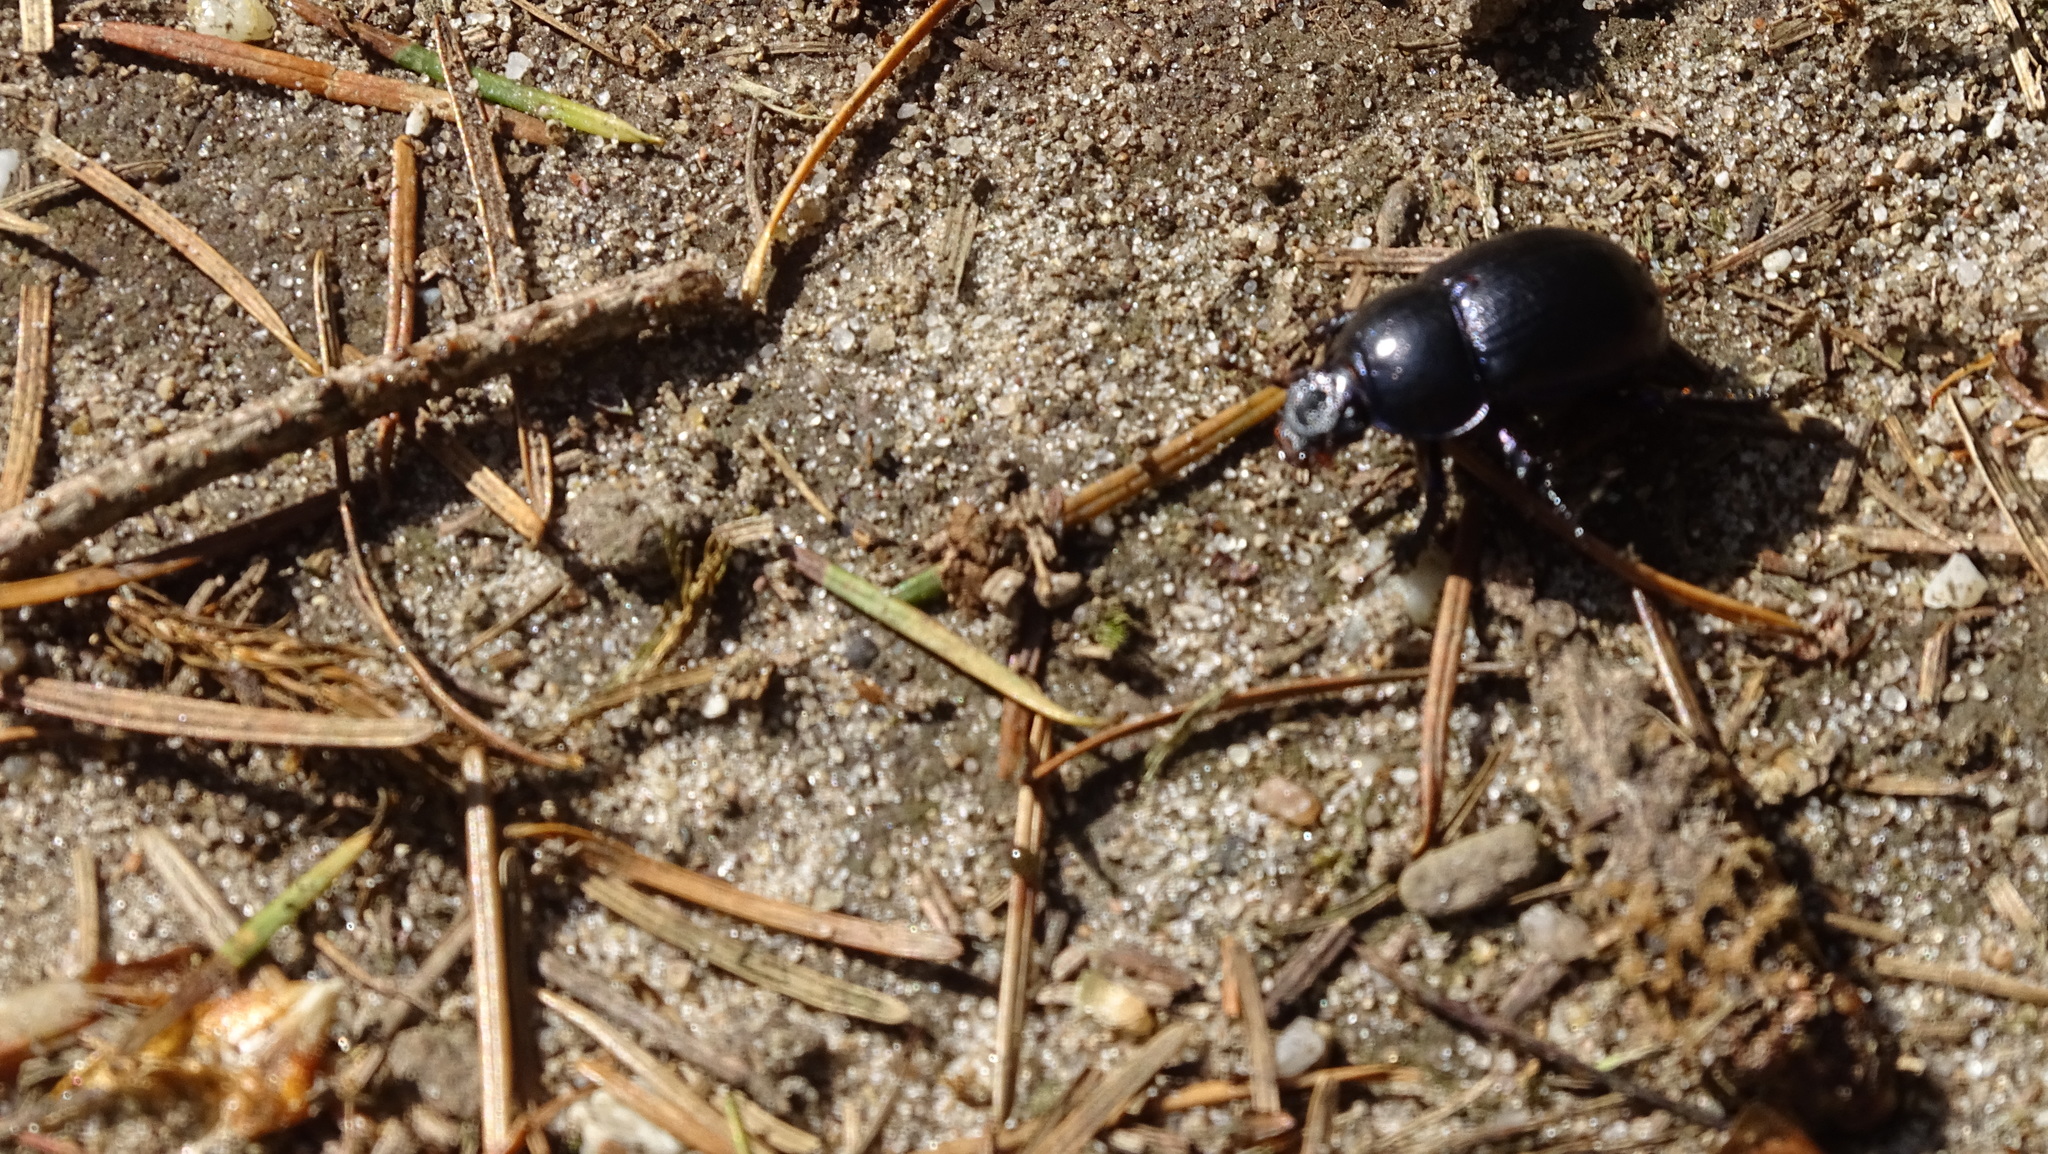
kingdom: Animalia
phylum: Arthropoda
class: Insecta
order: Coleoptera
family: Geotrupidae
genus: Anoplotrupes
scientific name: Anoplotrupes stercorosus
